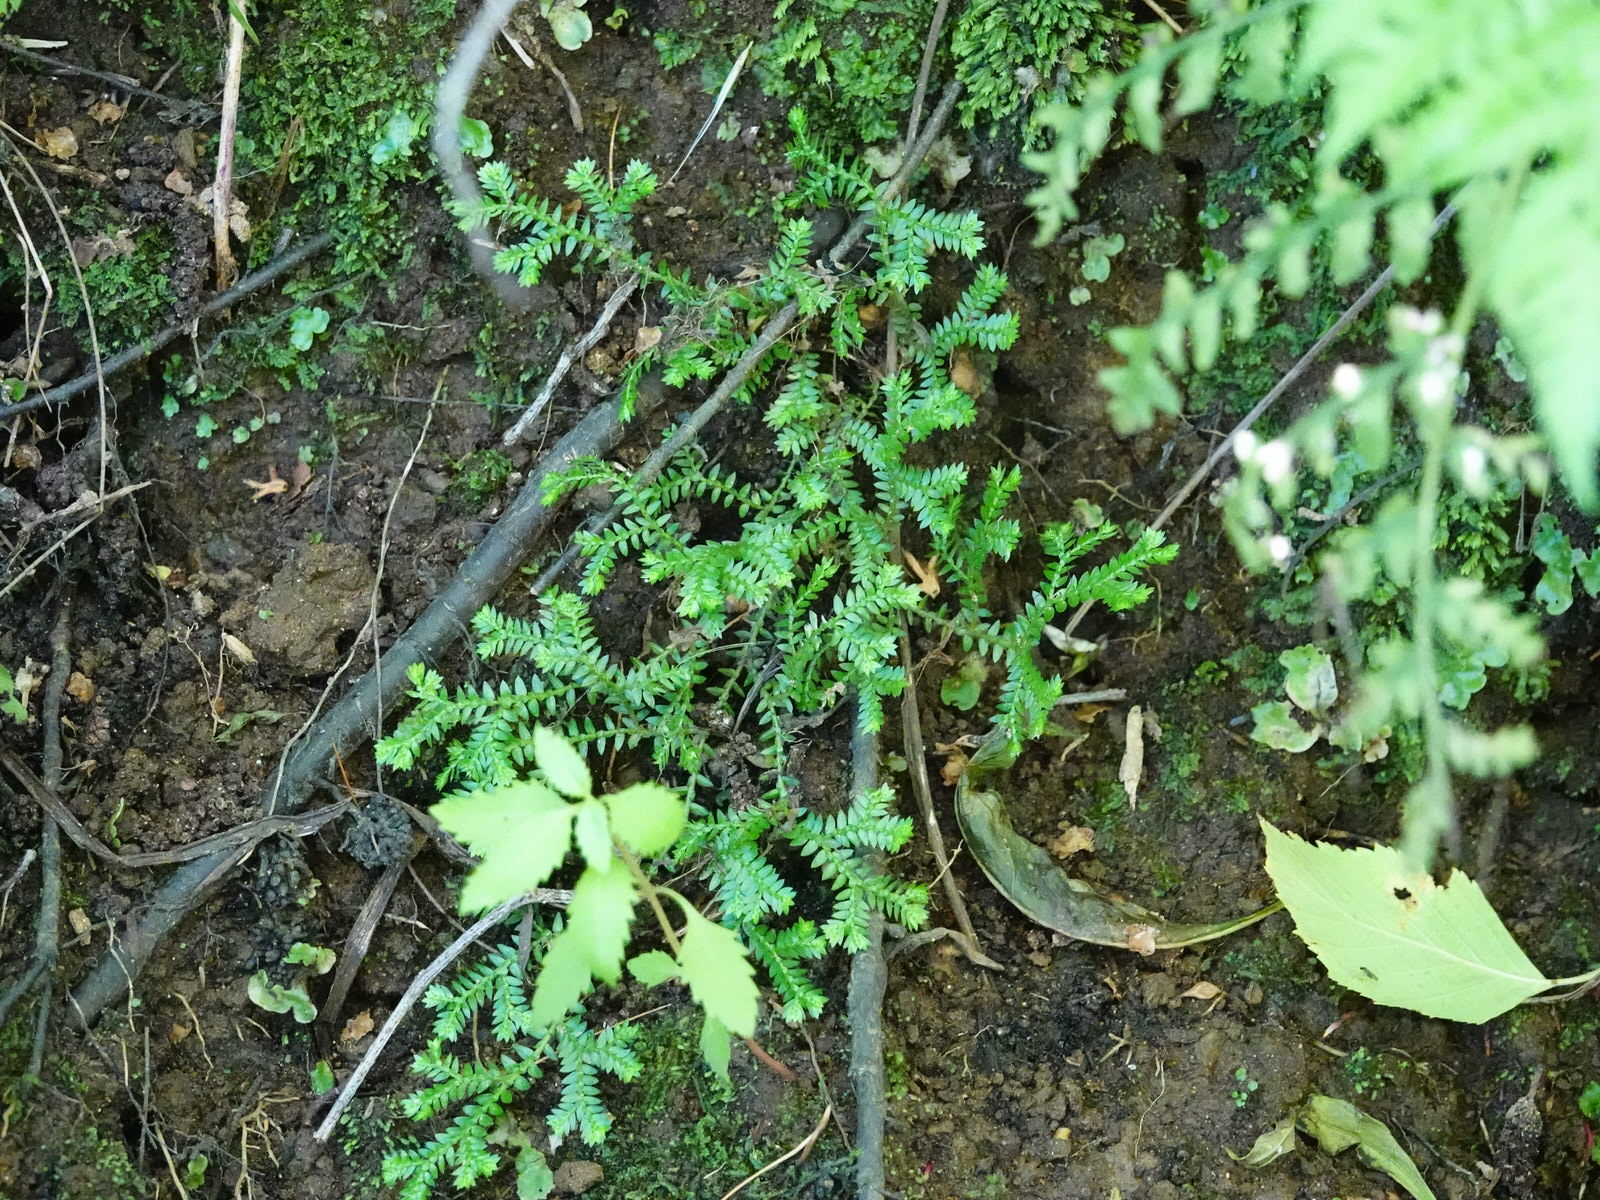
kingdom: Plantae
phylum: Tracheophyta
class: Lycopodiopsida
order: Selaginellales
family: Selaginellaceae
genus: Selaginella
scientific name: Selaginella kraussiana
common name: Krauss' spikemoss
